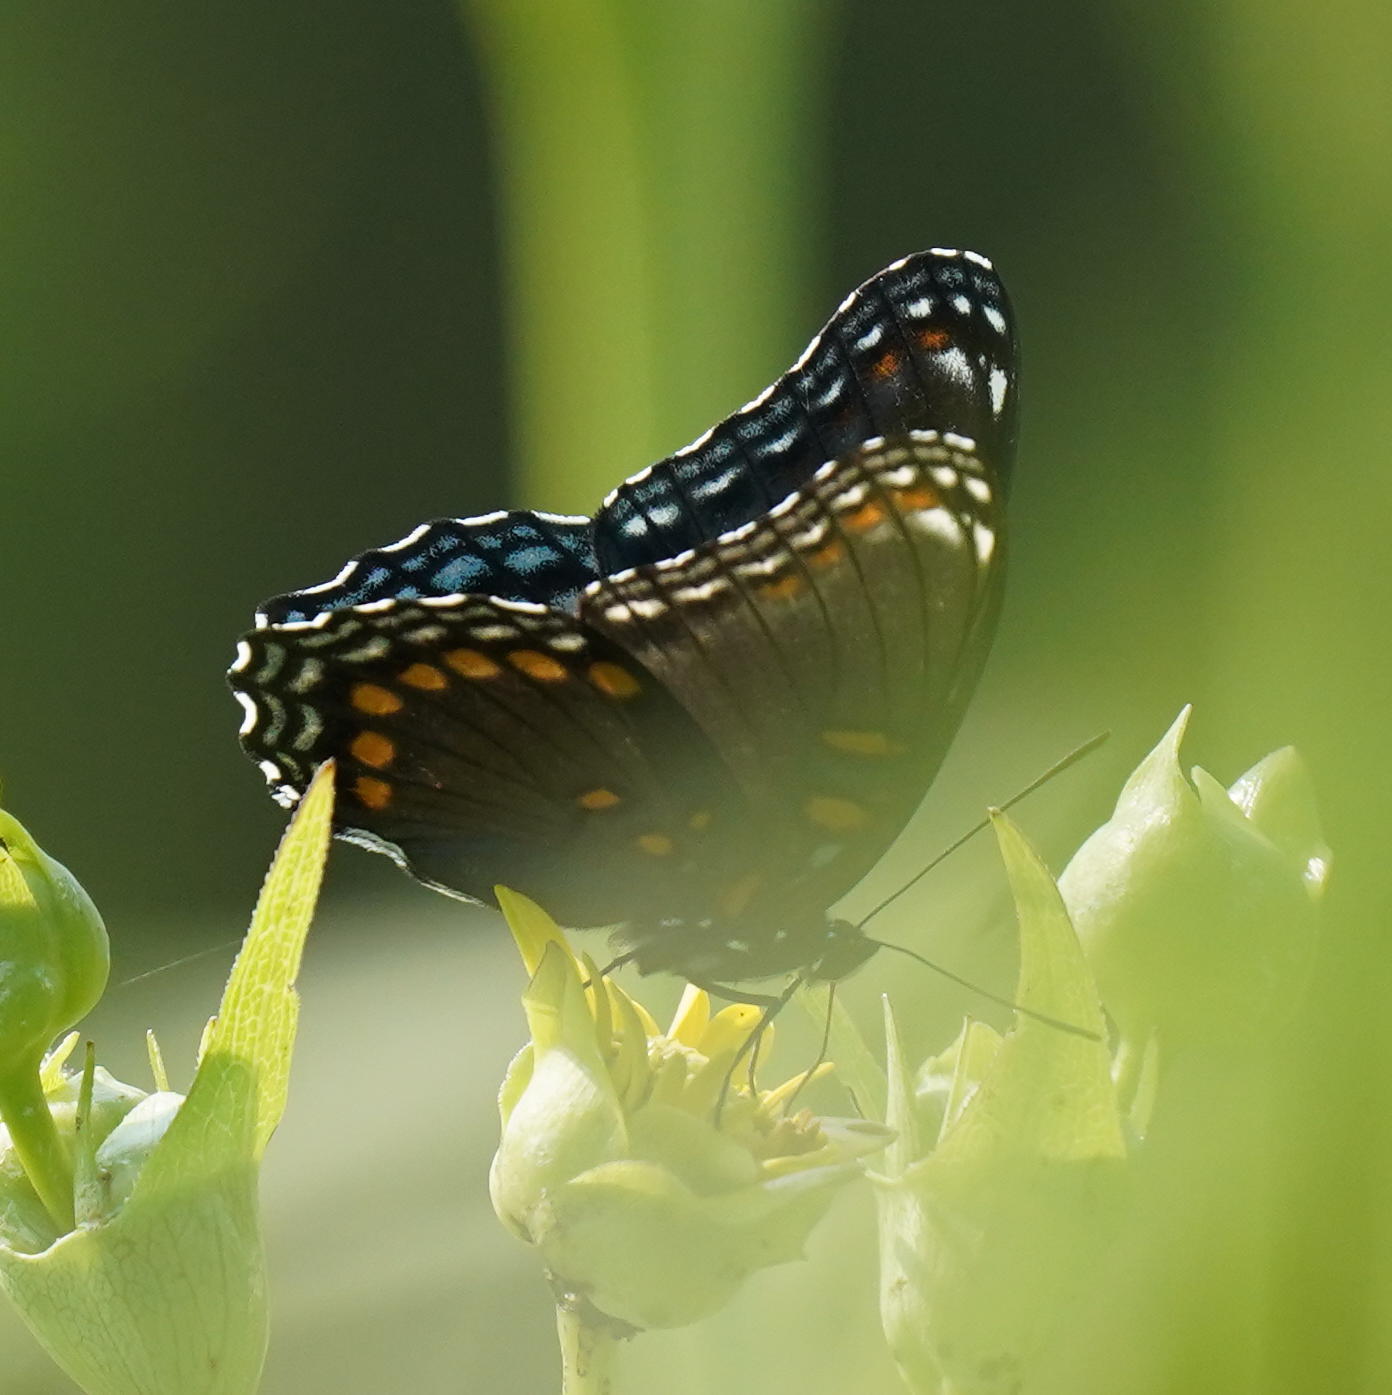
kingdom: Animalia
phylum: Arthropoda
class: Insecta
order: Lepidoptera
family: Nymphalidae
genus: Limenitis
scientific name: Limenitis astyanax
